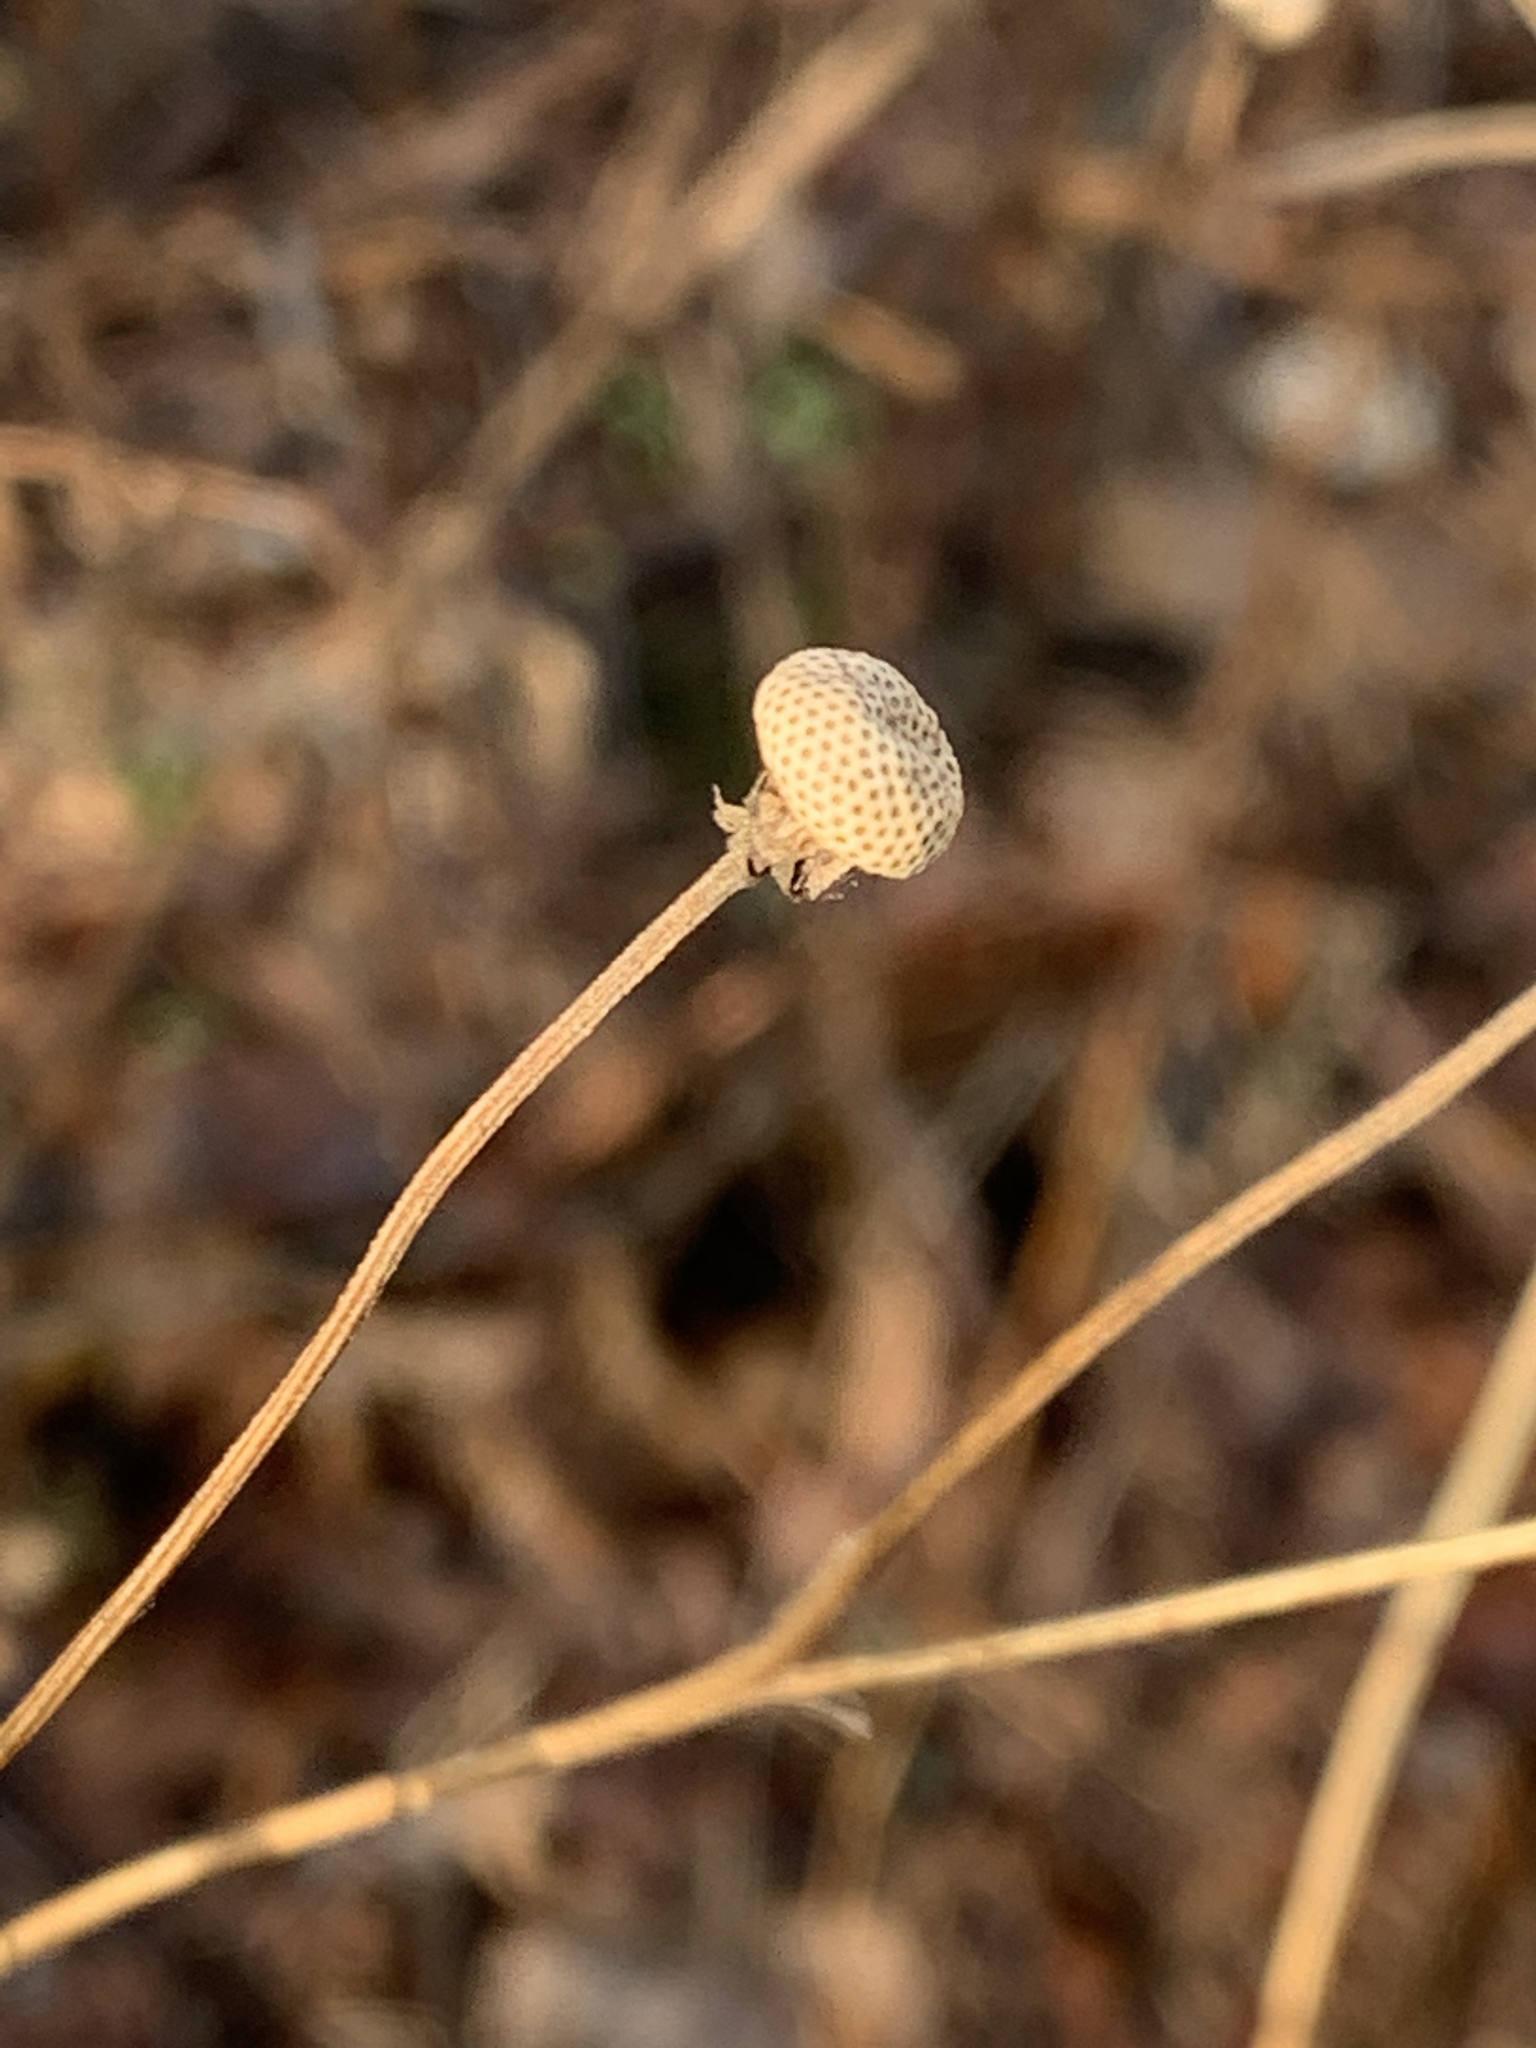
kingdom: Plantae
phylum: Tracheophyta
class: Magnoliopsida
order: Asterales
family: Asteraceae
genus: Helenium
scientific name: Helenium autumnale
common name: Sneezeweed
